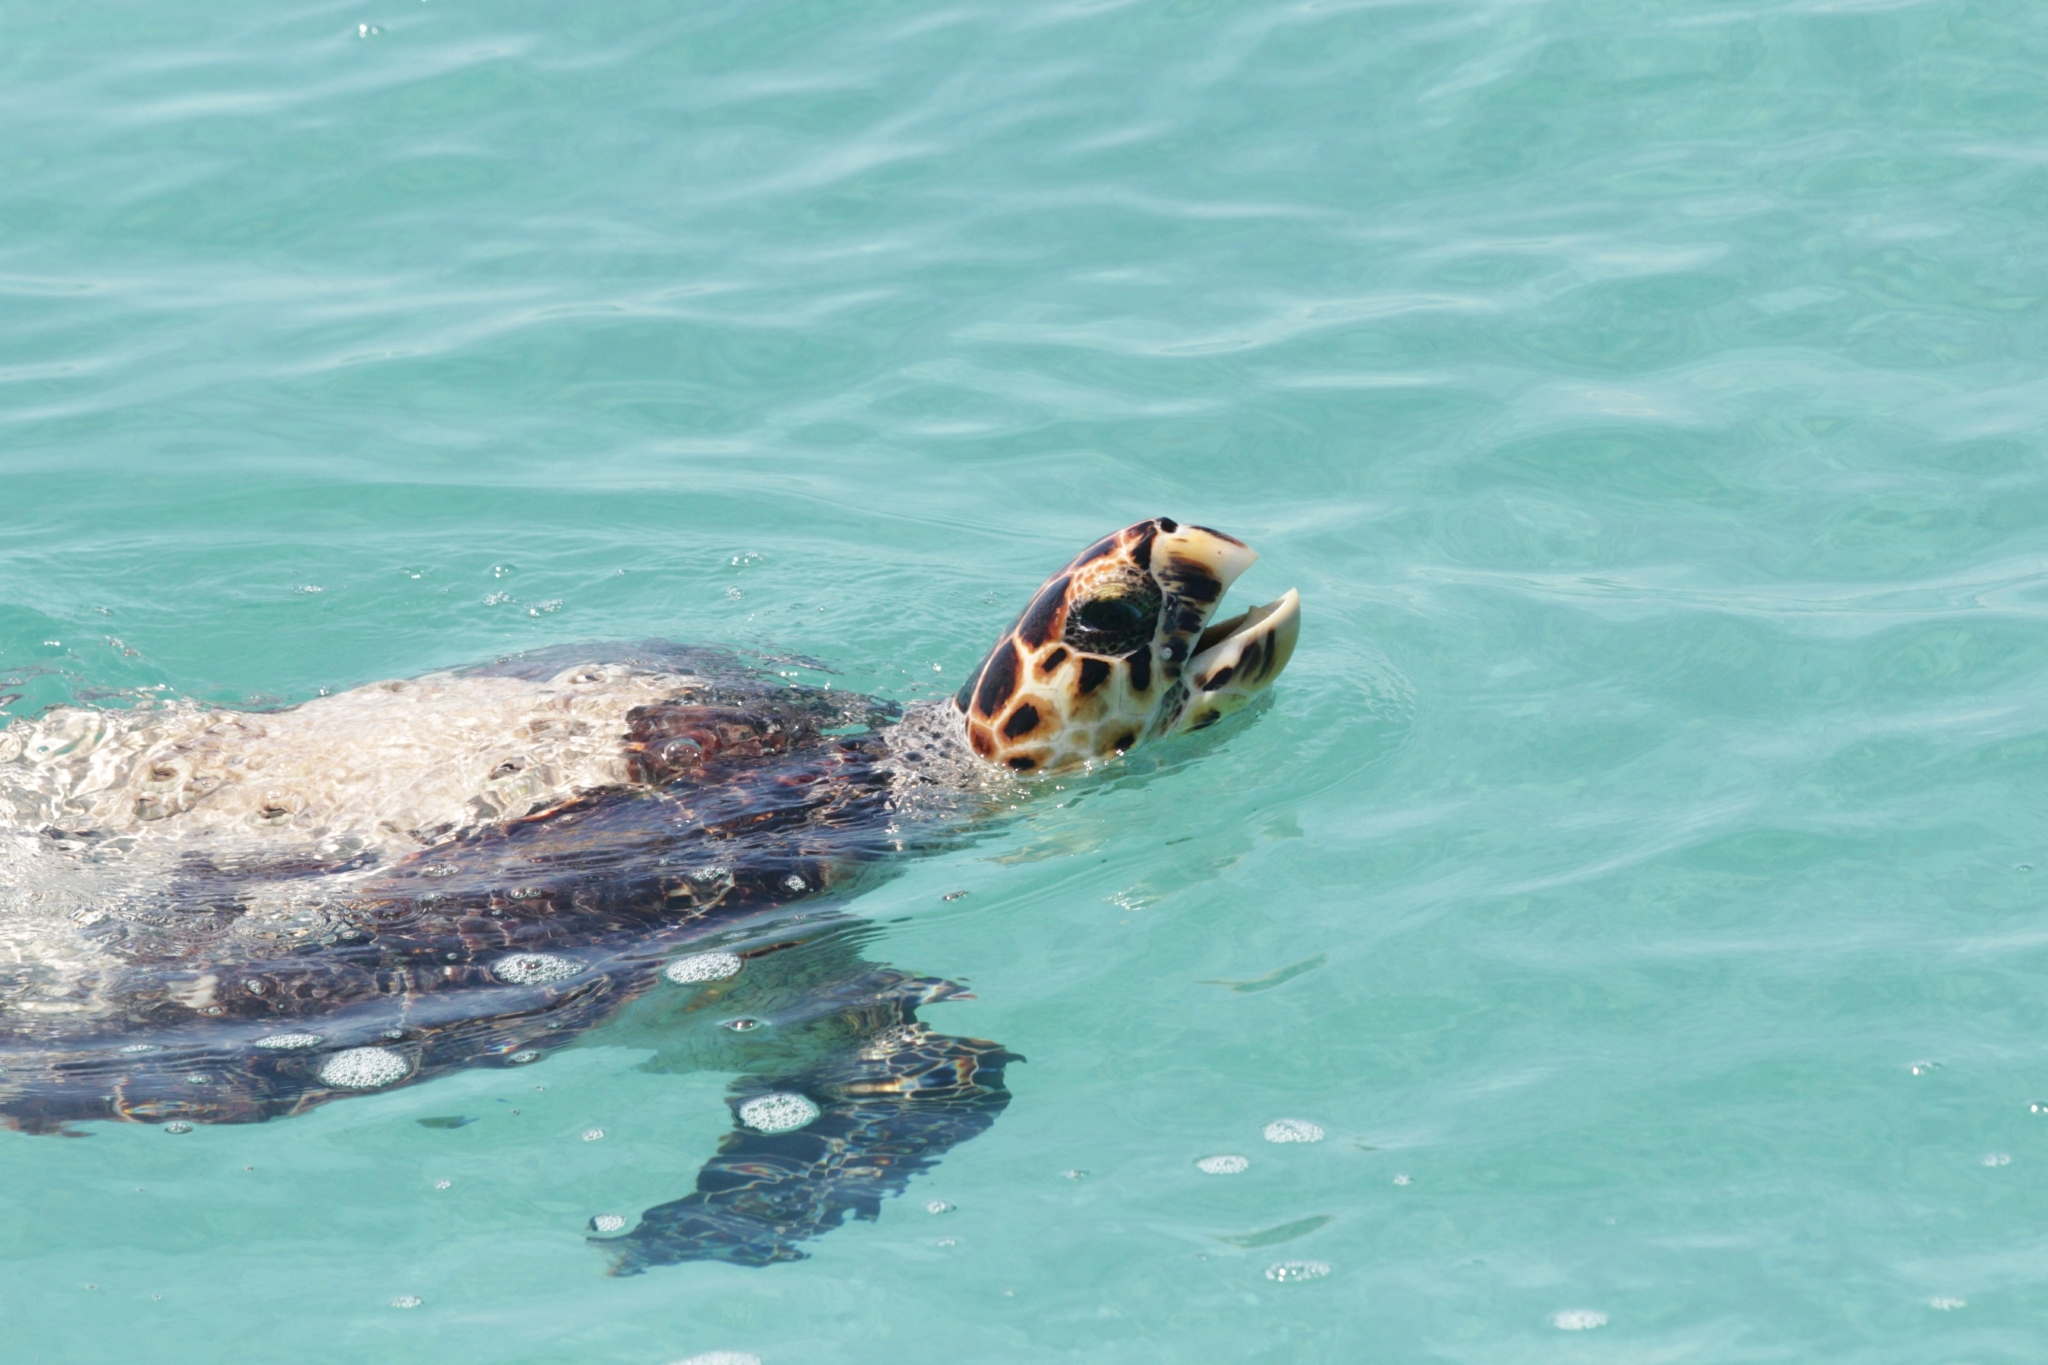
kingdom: Animalia
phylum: Chordata
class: Testudines
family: Cheloniidae
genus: Eretmochelys
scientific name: Eretmochelys imbricata
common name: Hawksbill turtle
